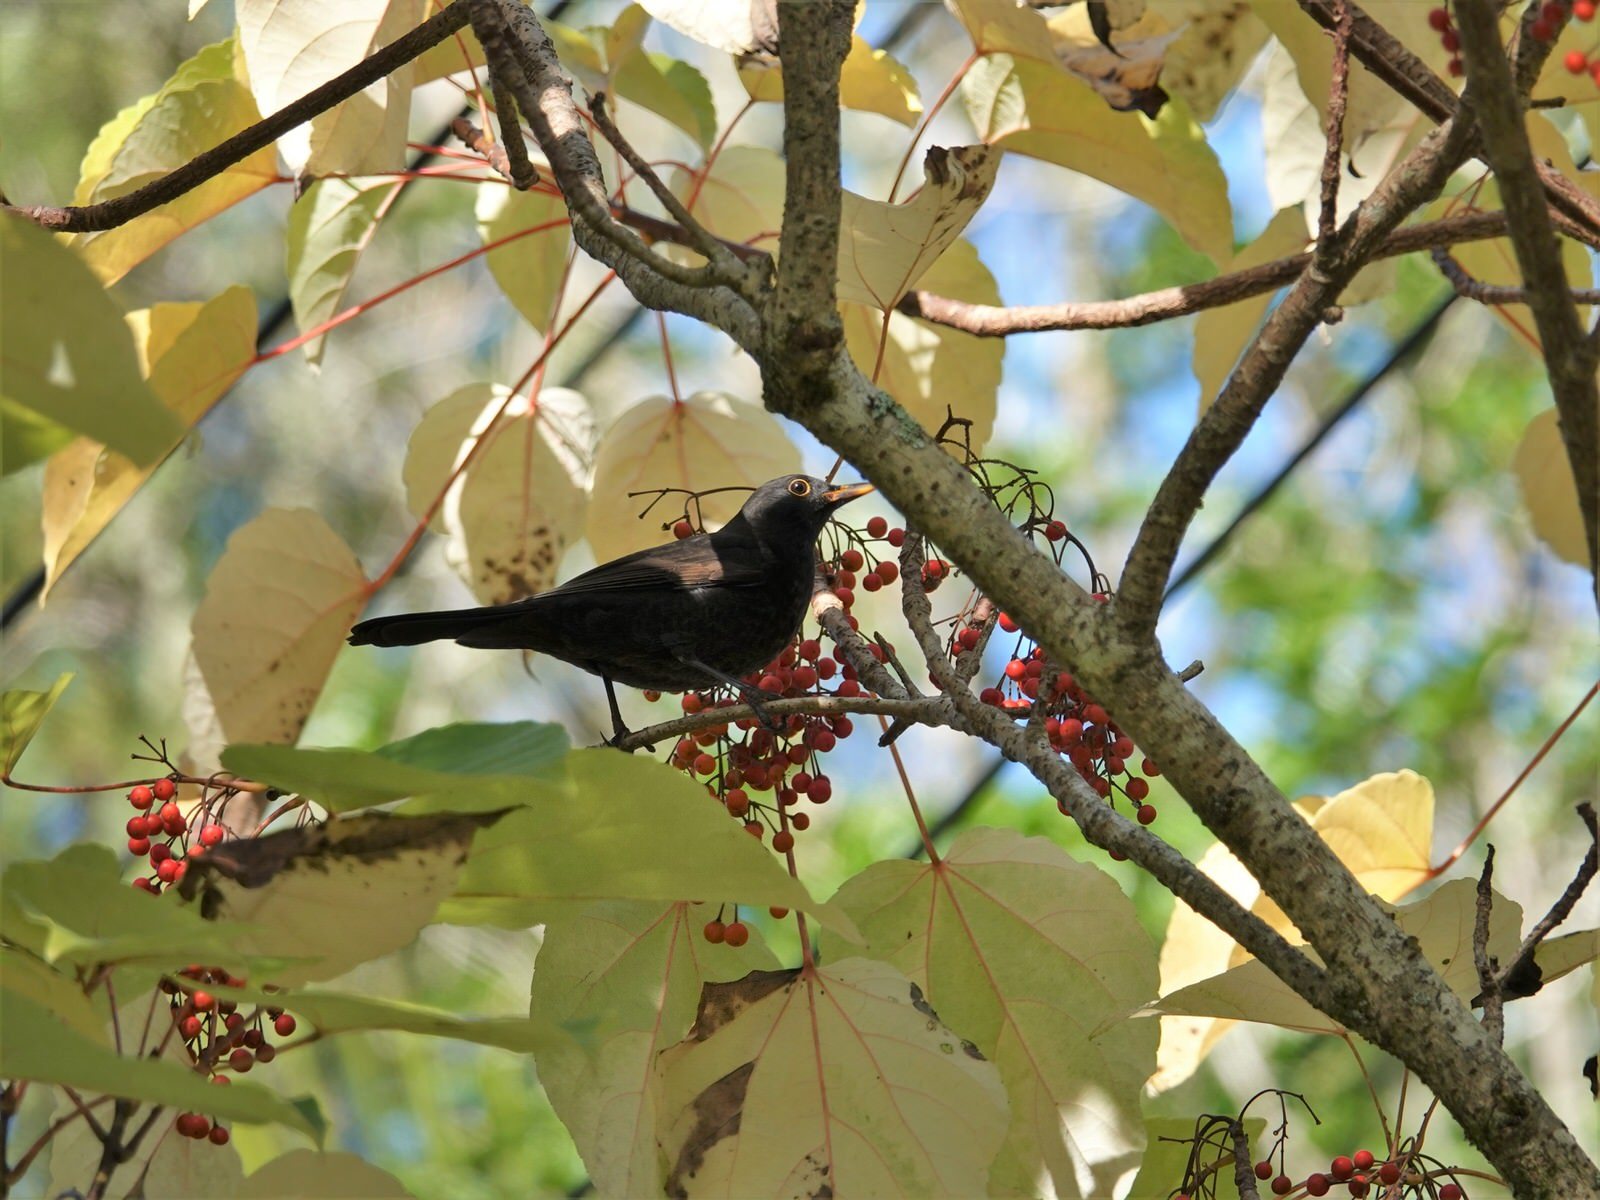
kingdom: Animalia
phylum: Chordata
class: Aves
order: Passeriformes
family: Turdidae
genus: Turdus
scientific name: Turdus merula
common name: Common blackbird
